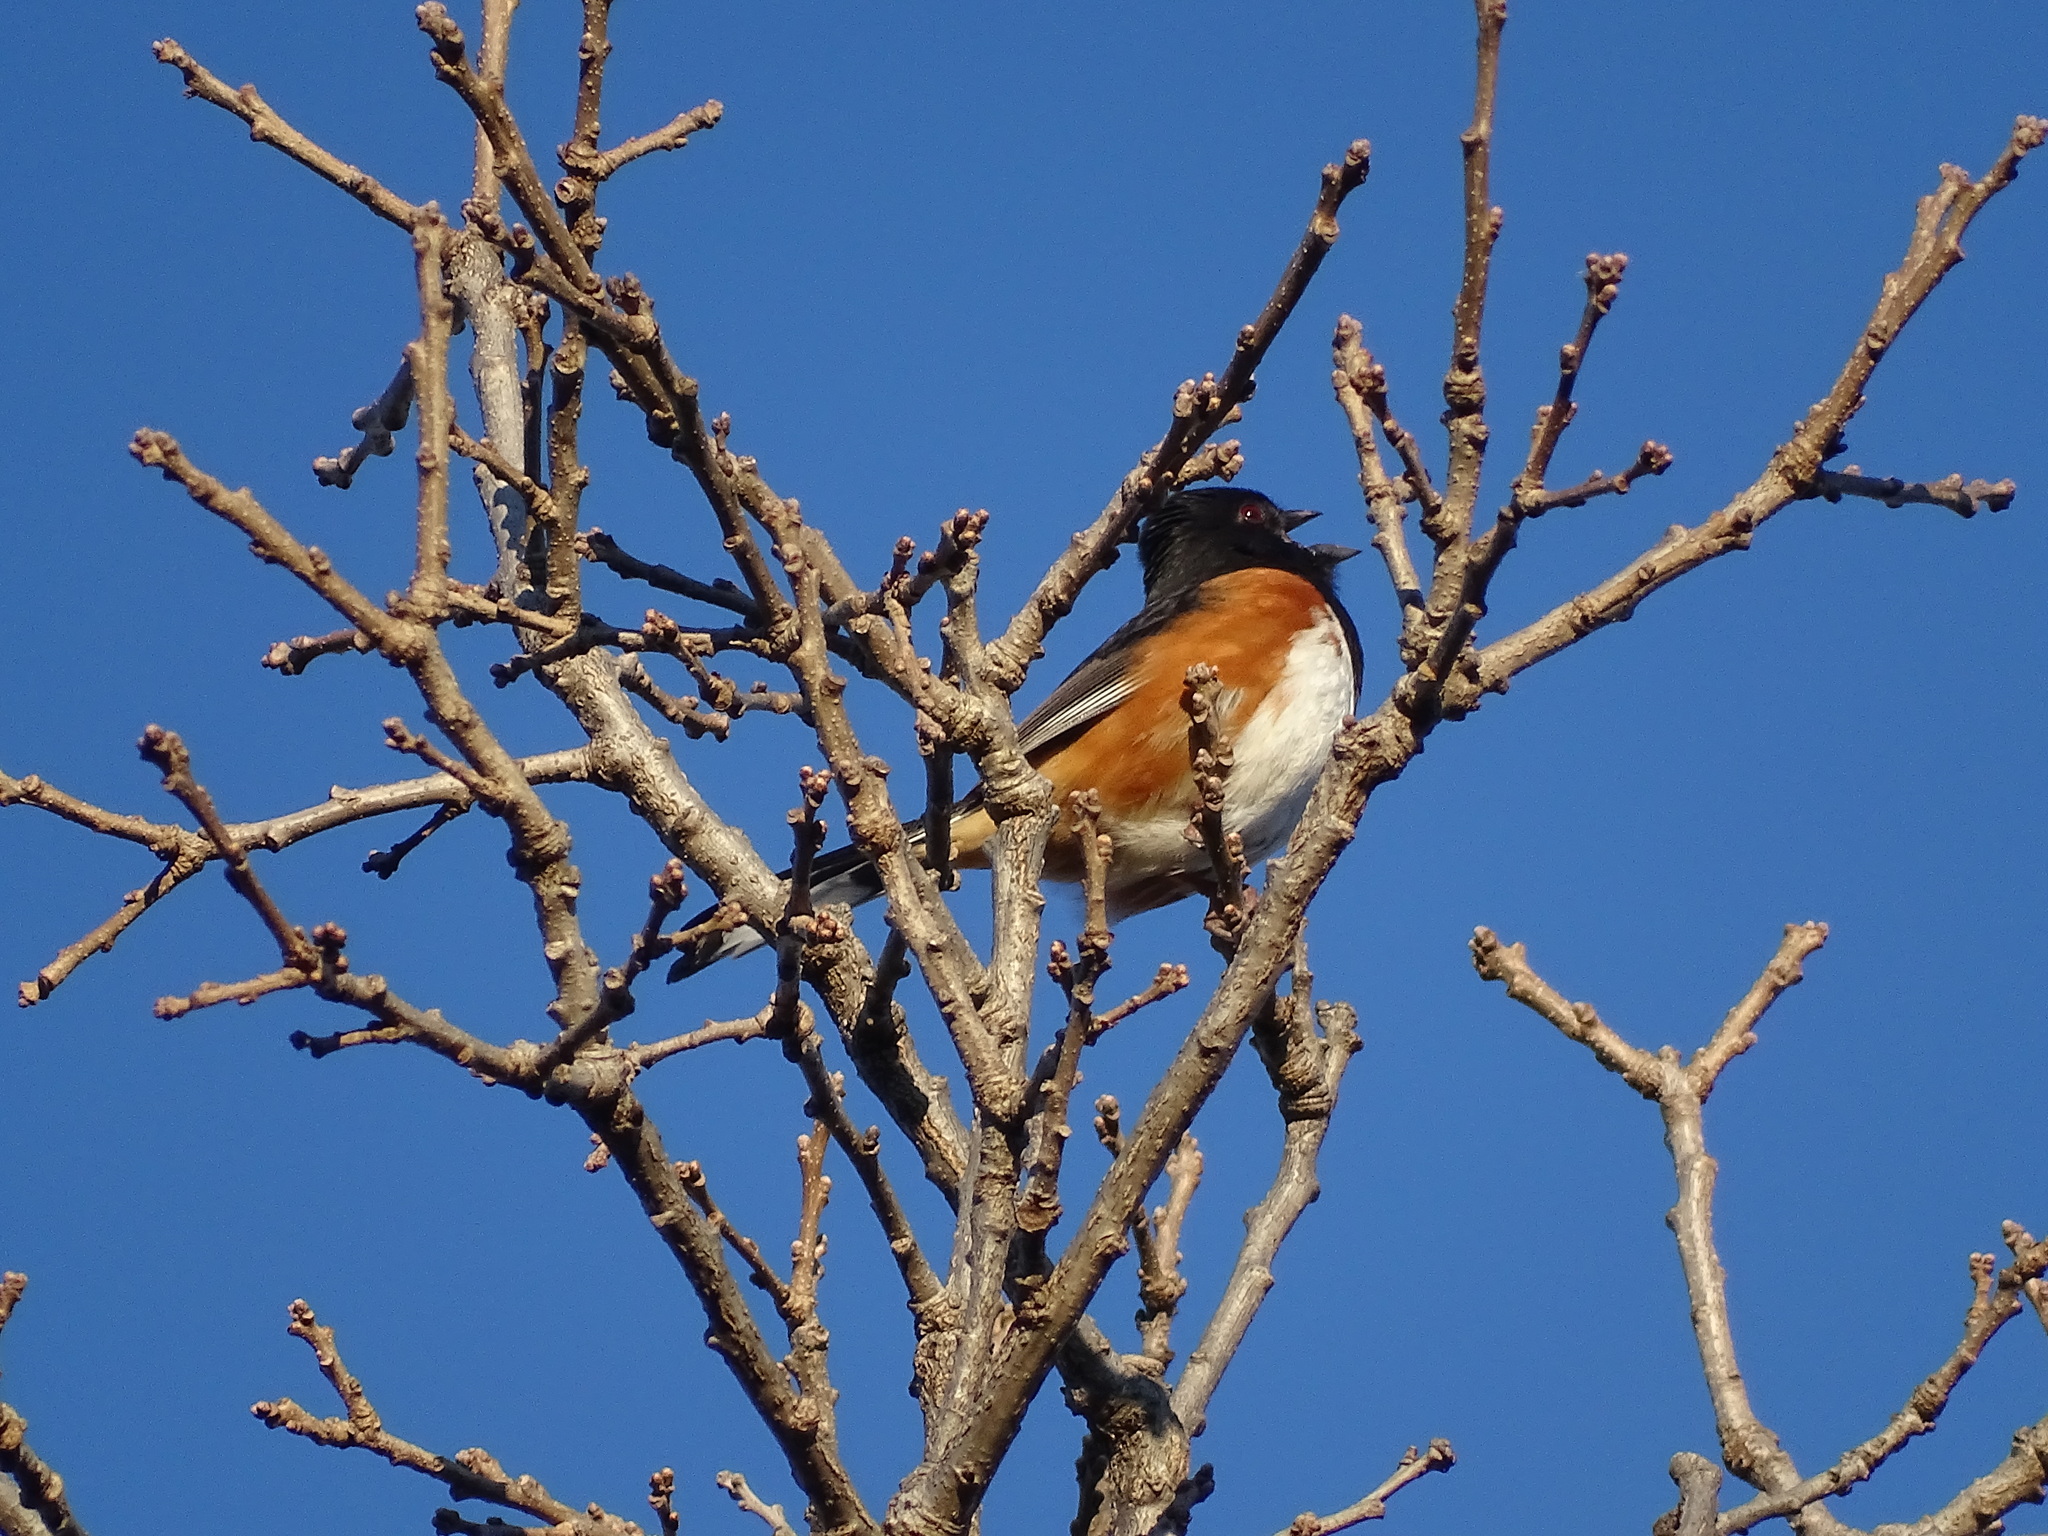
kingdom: Animalia
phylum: Chordata
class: Aves
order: Passeriformes
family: Passerellidae
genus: Pipilo
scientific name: Pipilo erythrophthalmus
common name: Eastern towhee
